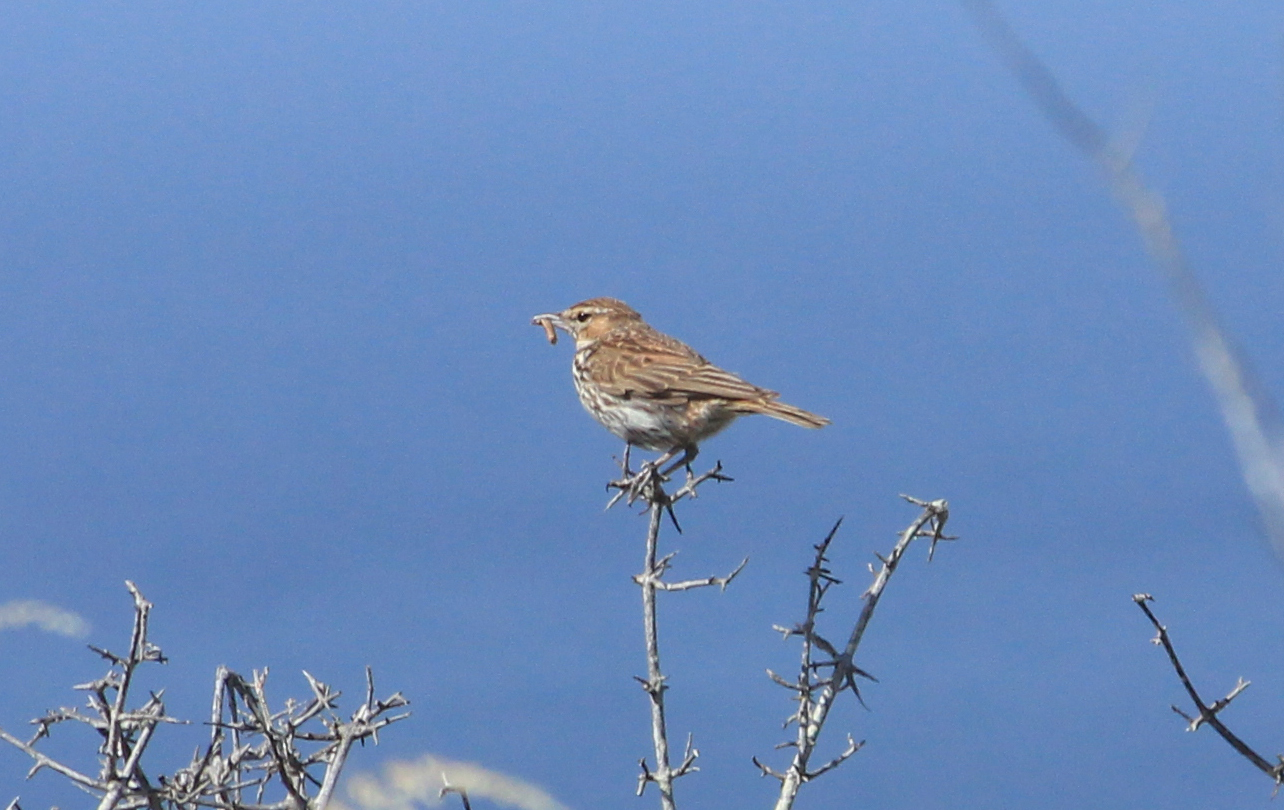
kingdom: Animalia
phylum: Chordata
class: Aves
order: Passeriformes
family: Alaudidae
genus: Calendulauda
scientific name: Calendulauda albescens
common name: Karoo lark
